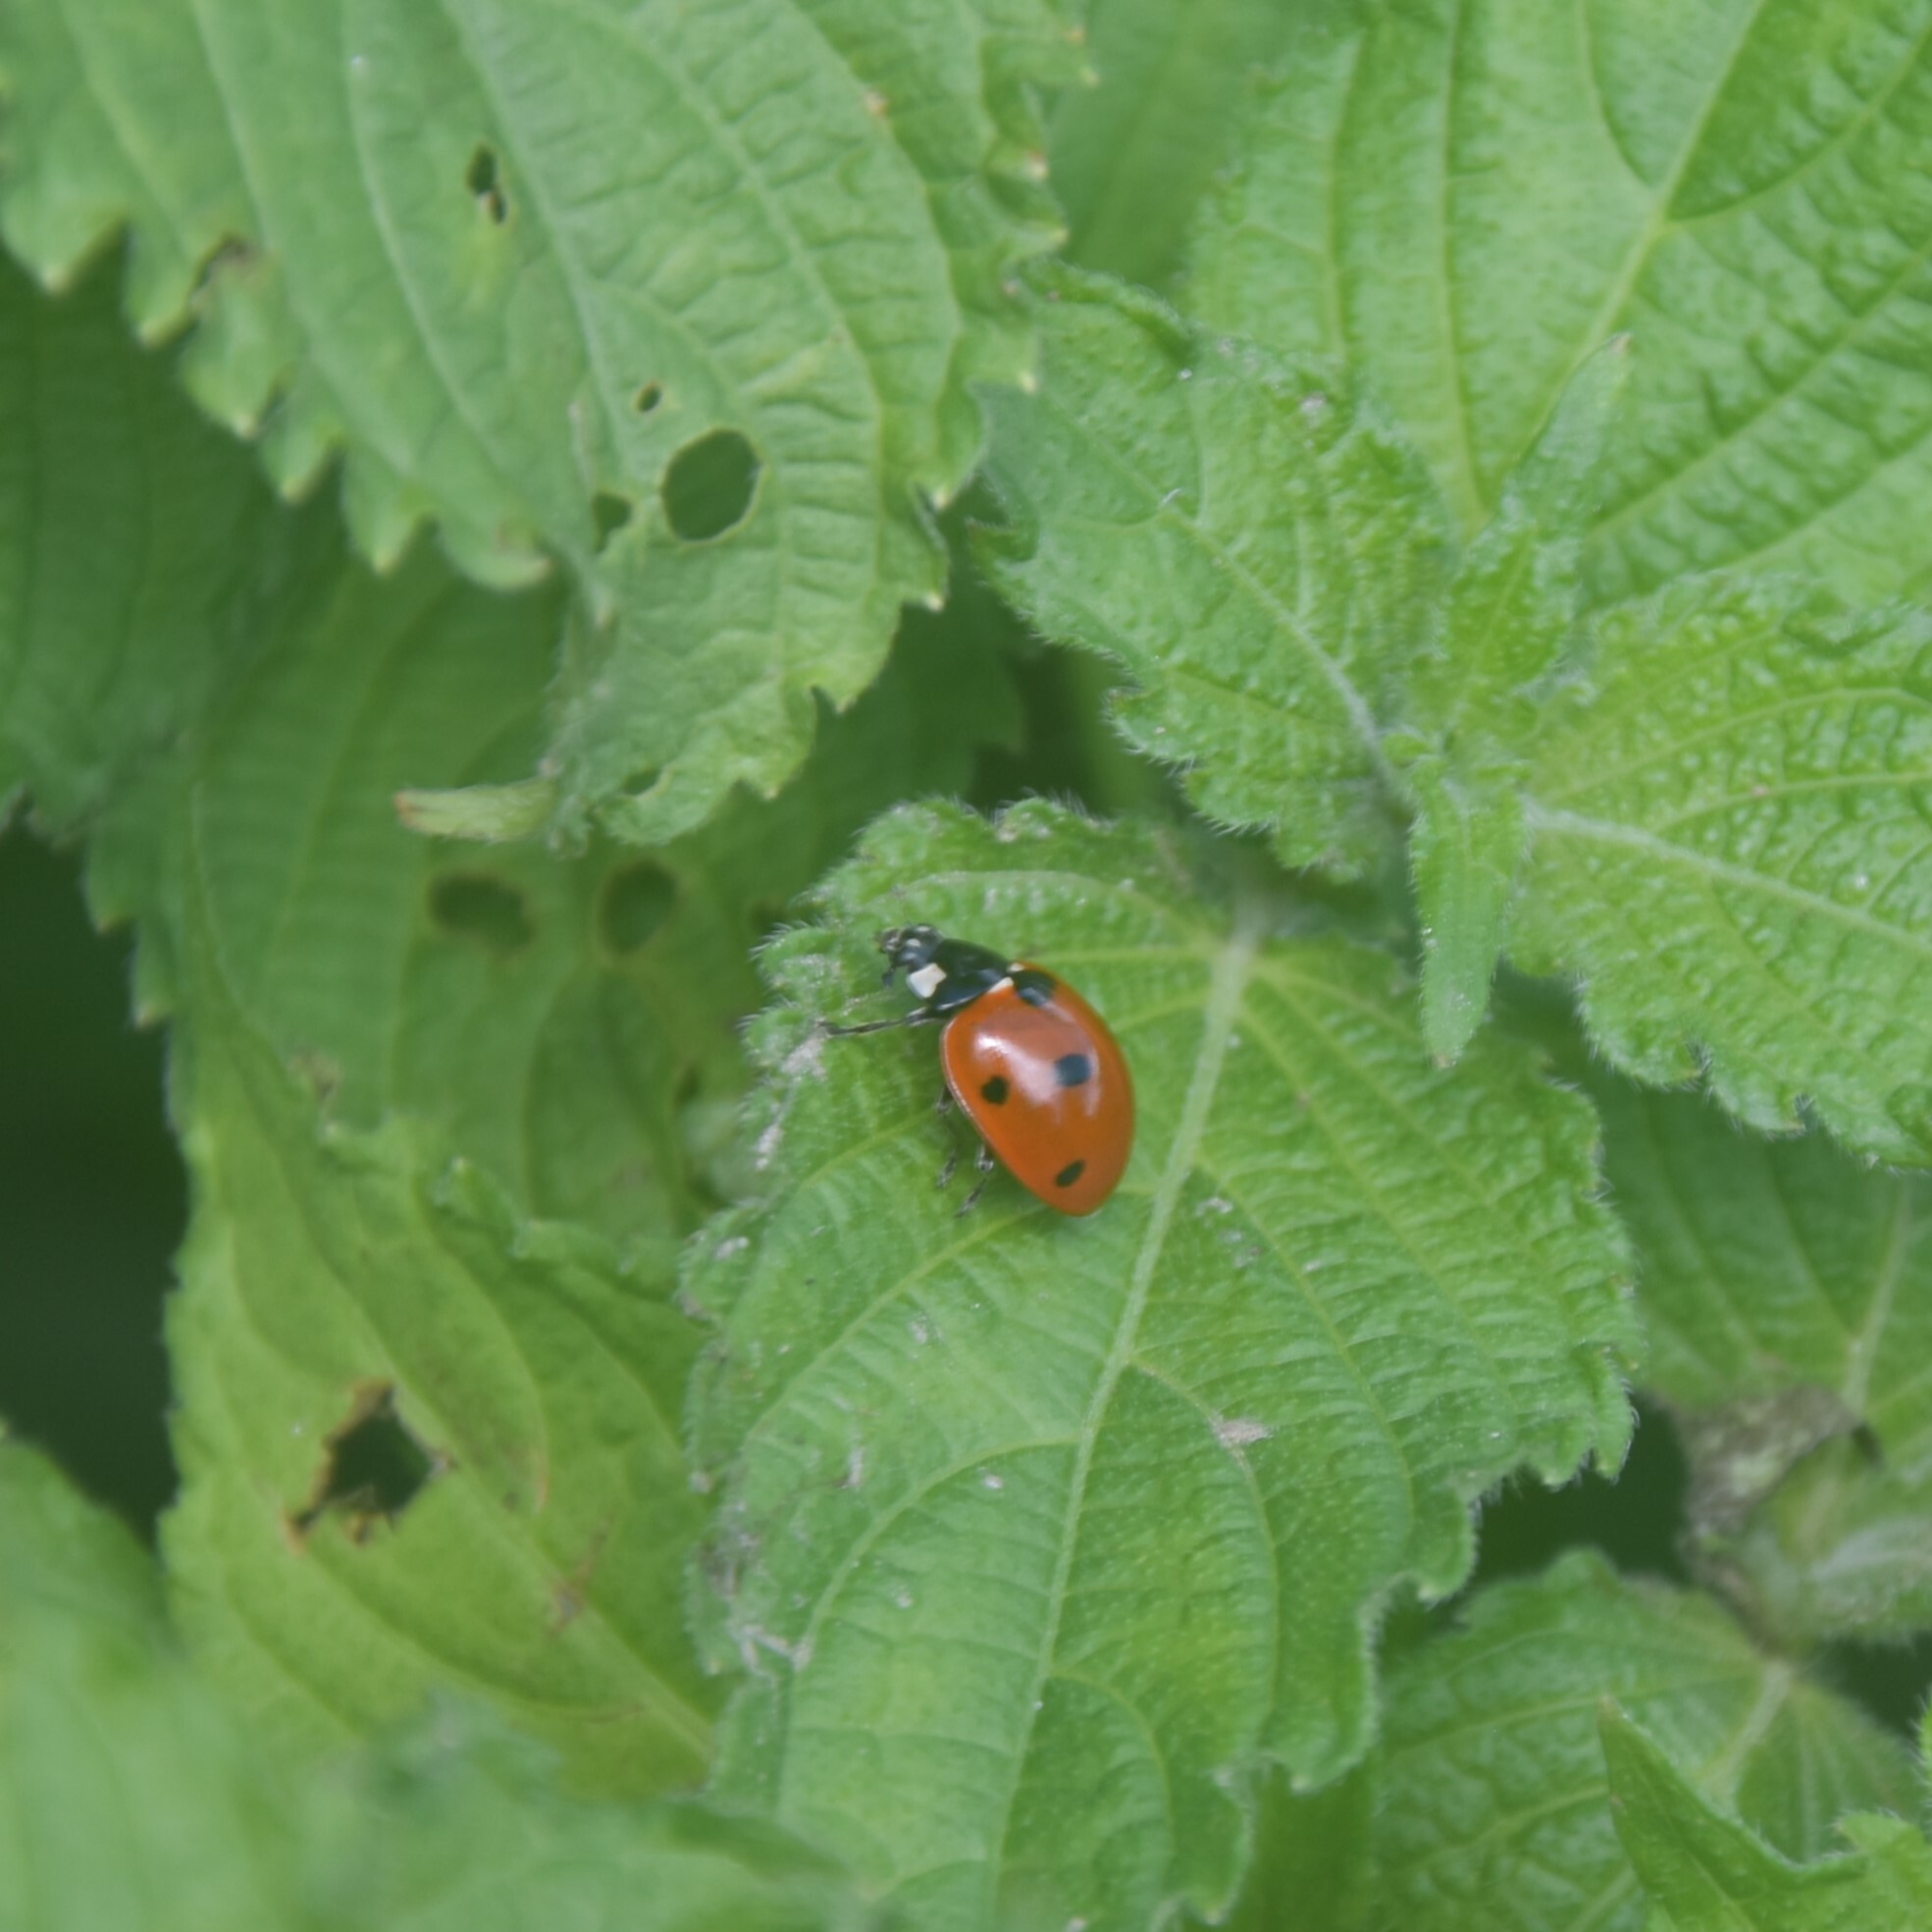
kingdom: Animalia
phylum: Arthropoda
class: Insecta
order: Coleoptera
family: Coccinellidae
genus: Coccinella
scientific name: Coccinella septempunctata
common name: Sevenspotted lady beetle
